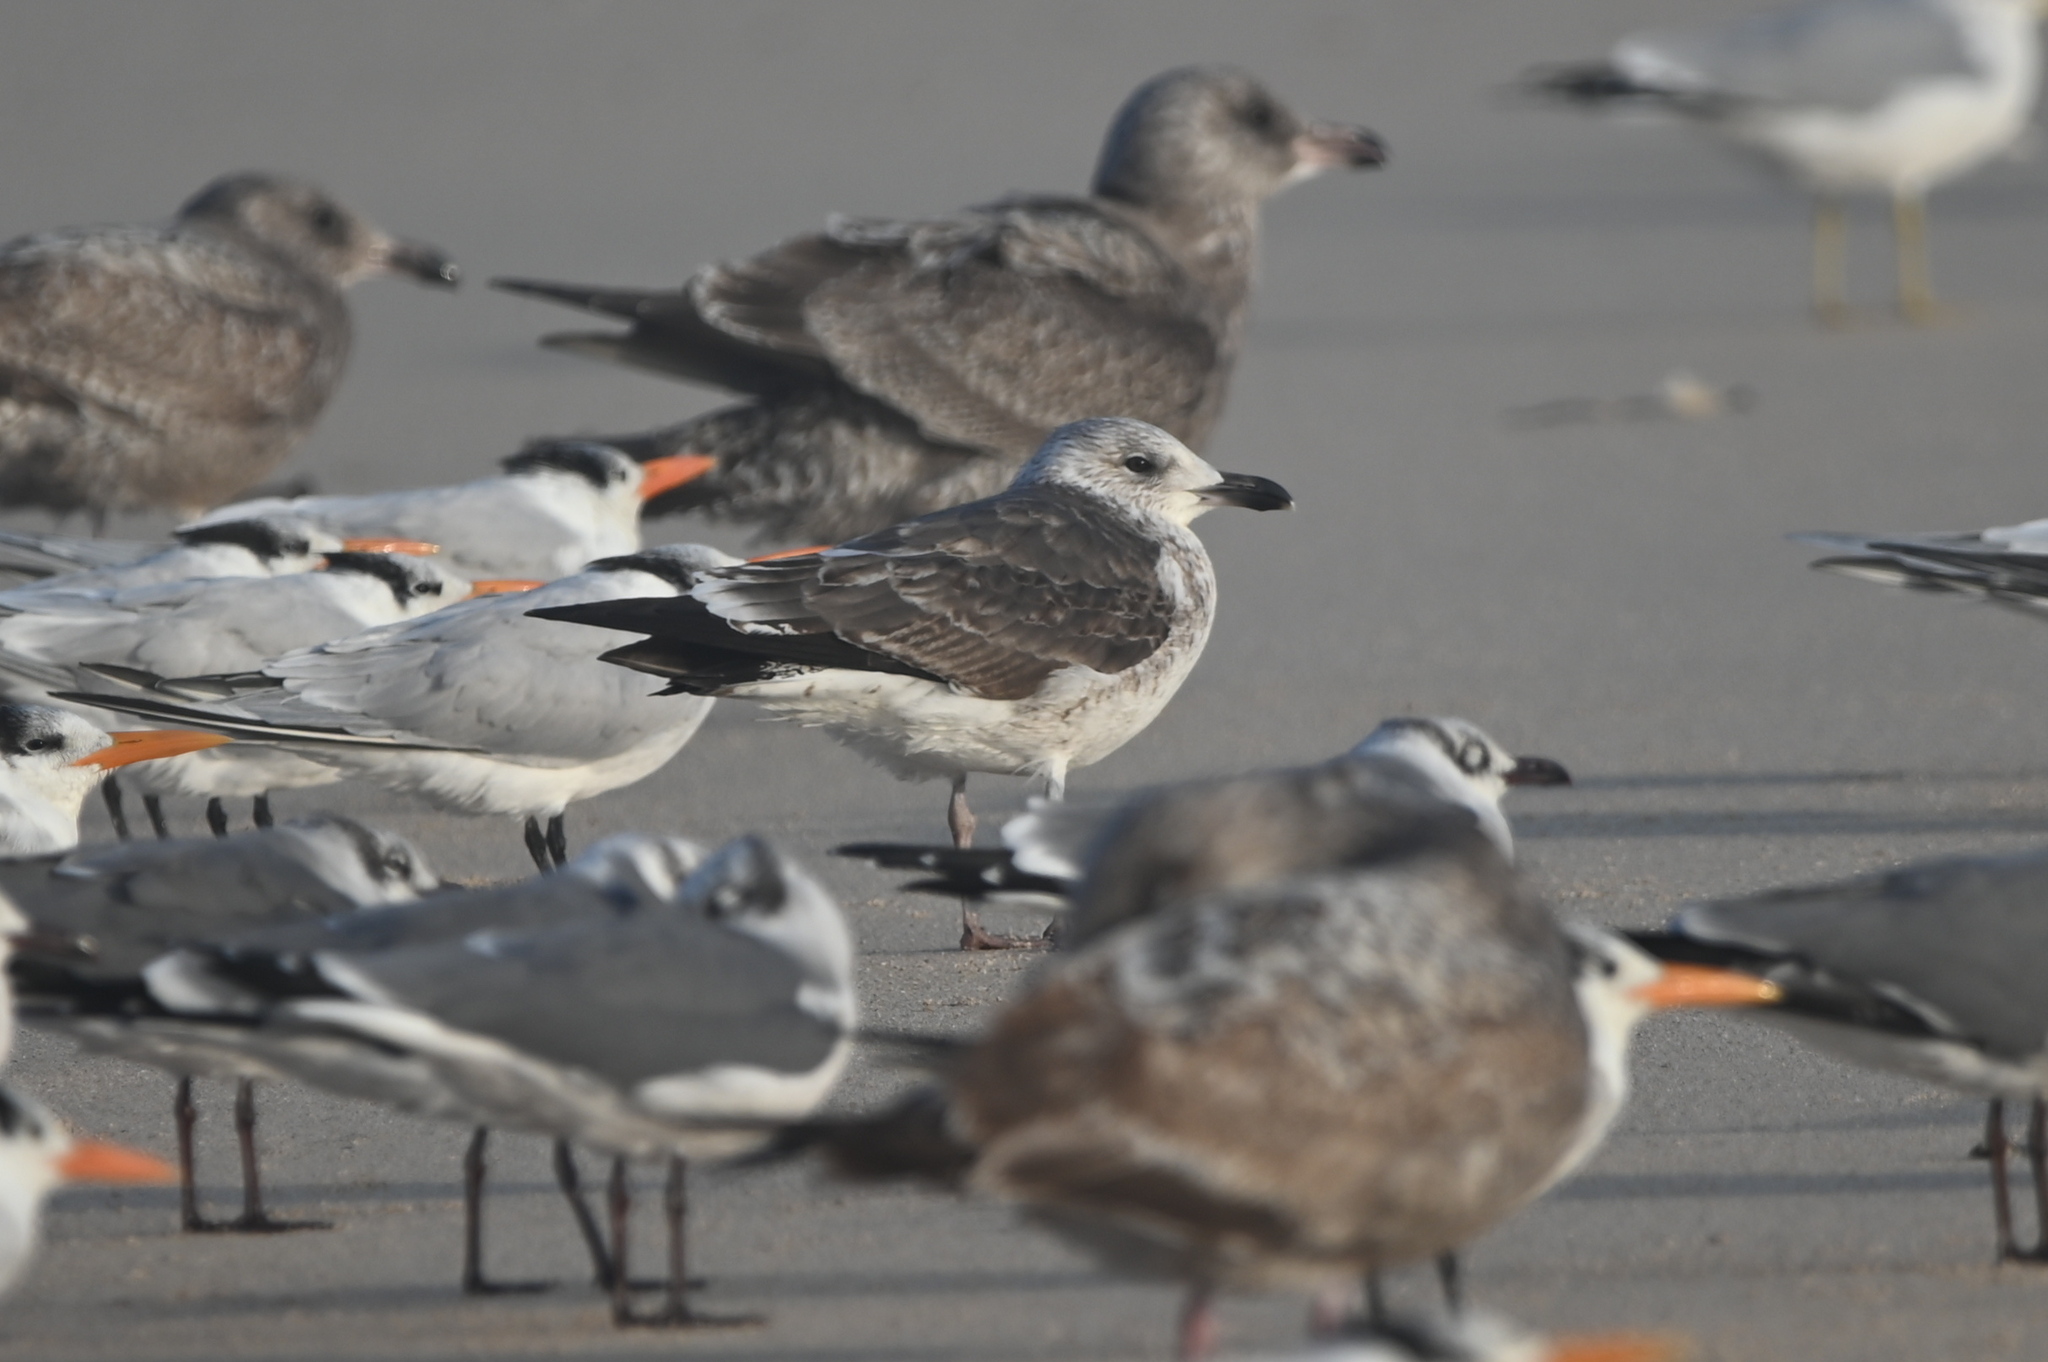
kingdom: Animalia
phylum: Chordata
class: Aves
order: Charadriiformes
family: Laridae
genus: Larus
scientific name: Larus fuscus
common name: Lesser black-backed gull
